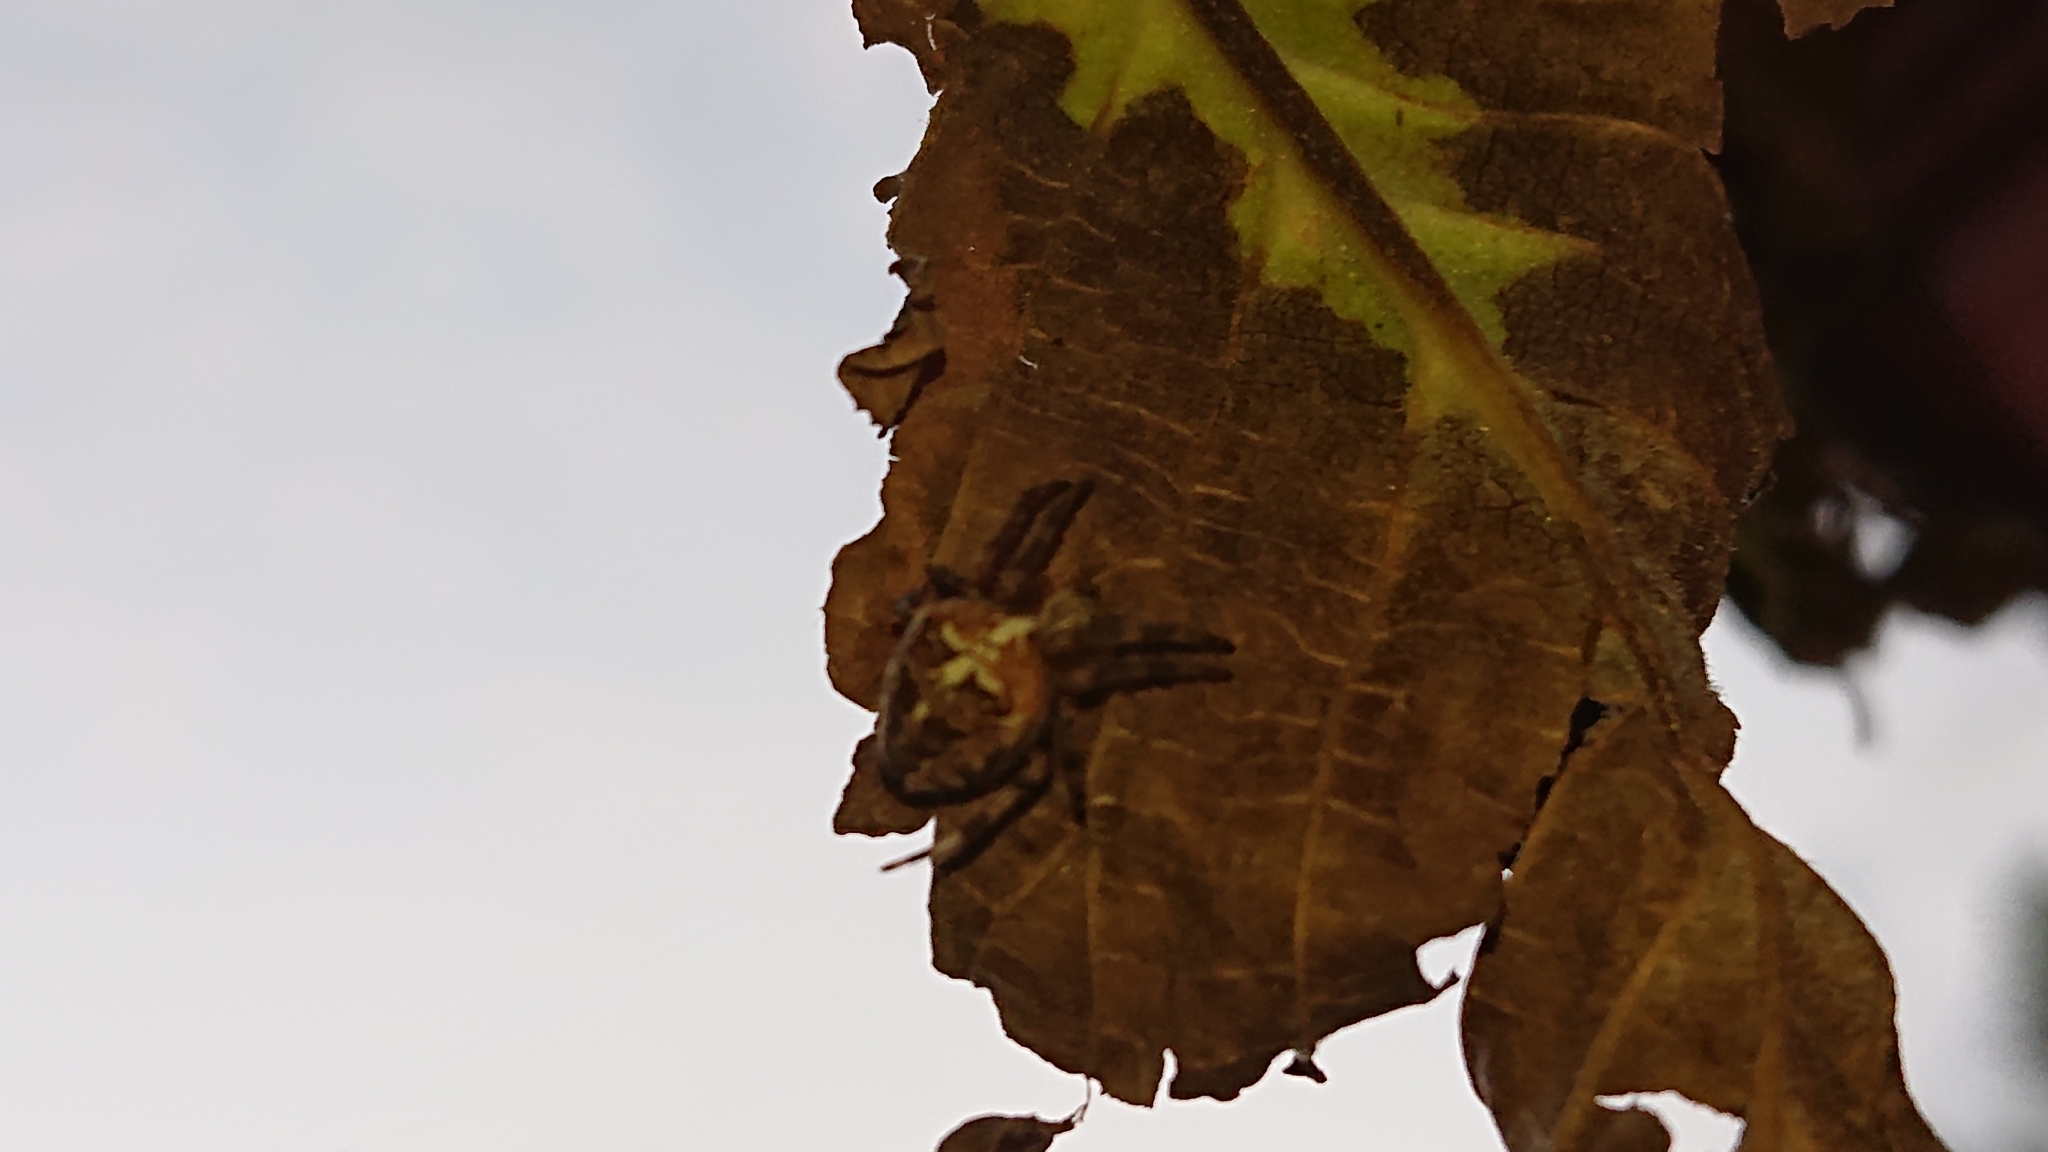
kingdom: Animalia
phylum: Arthropoda
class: Arachnida
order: Araneae
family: Araneidae
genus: Araneus
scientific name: Araneus diadematus
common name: Cross orbweaver
